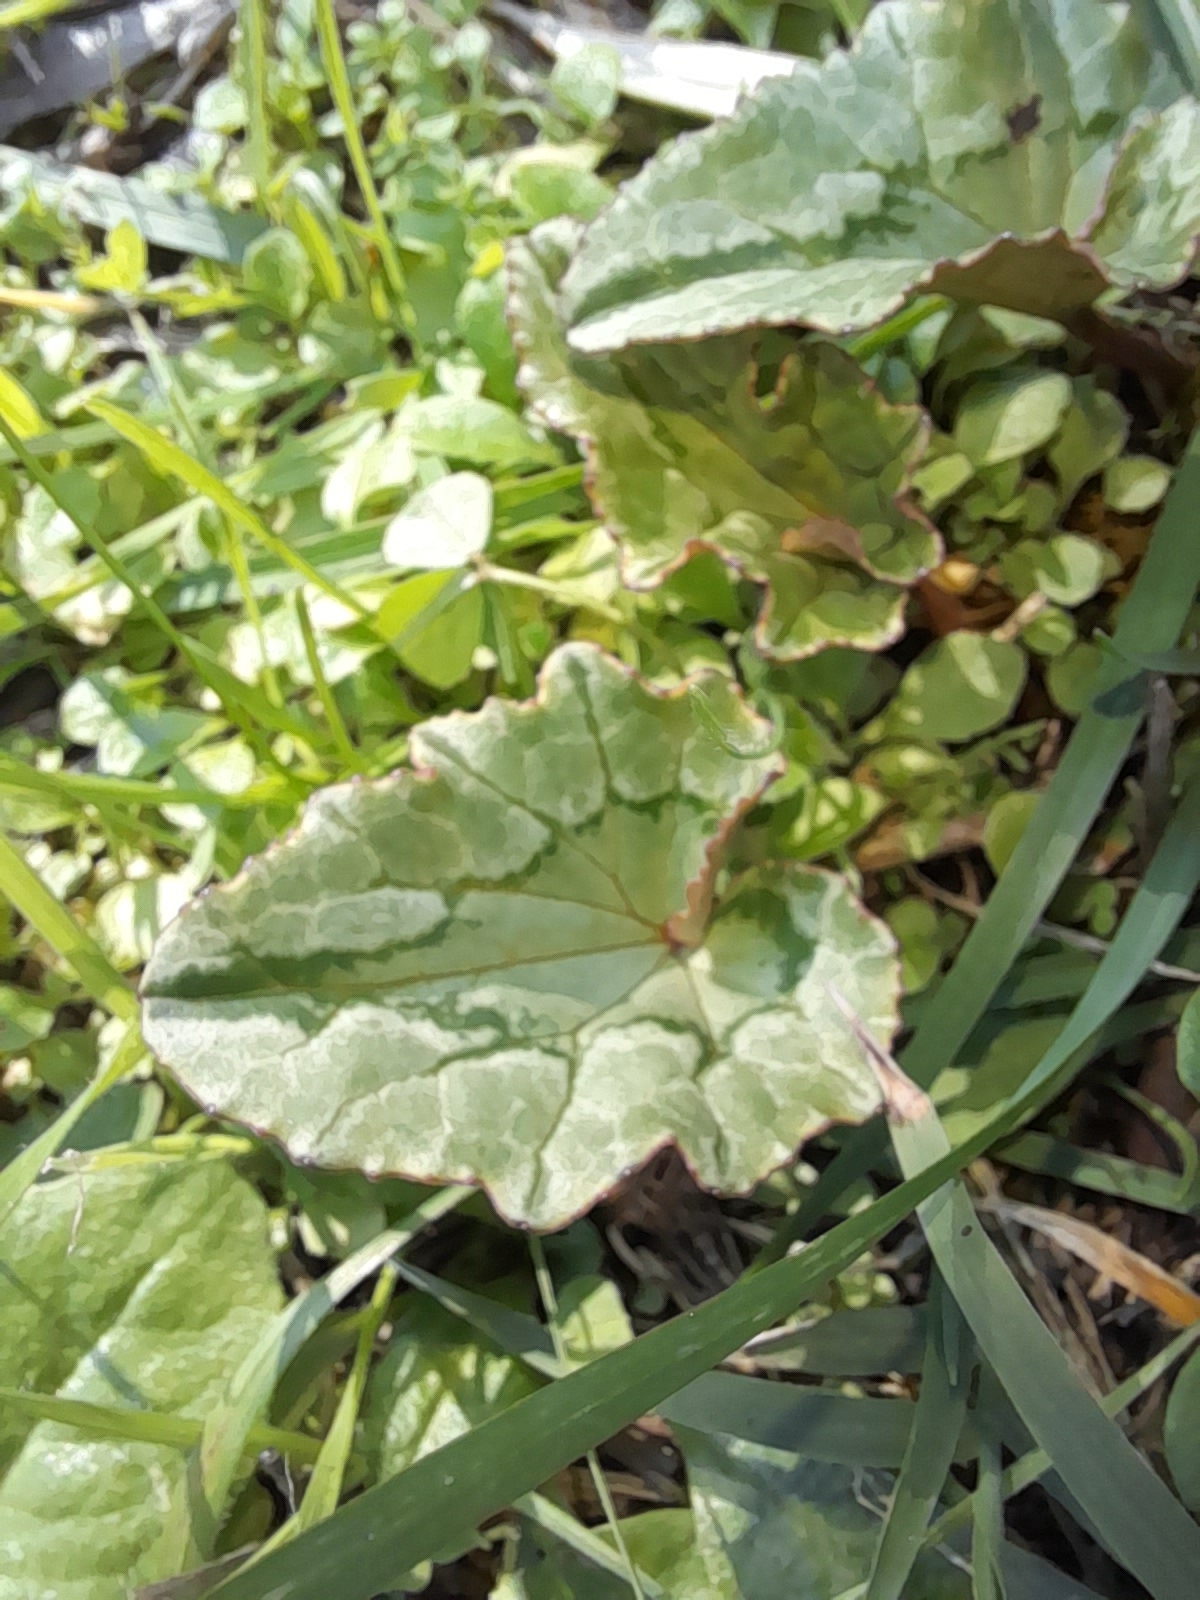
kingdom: Plantae
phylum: Tracheophyta
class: Magnoliopsida
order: Ericales
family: Primulaceae
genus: Cyclamen
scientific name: Cyclamen hederifolium
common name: Sowbread
